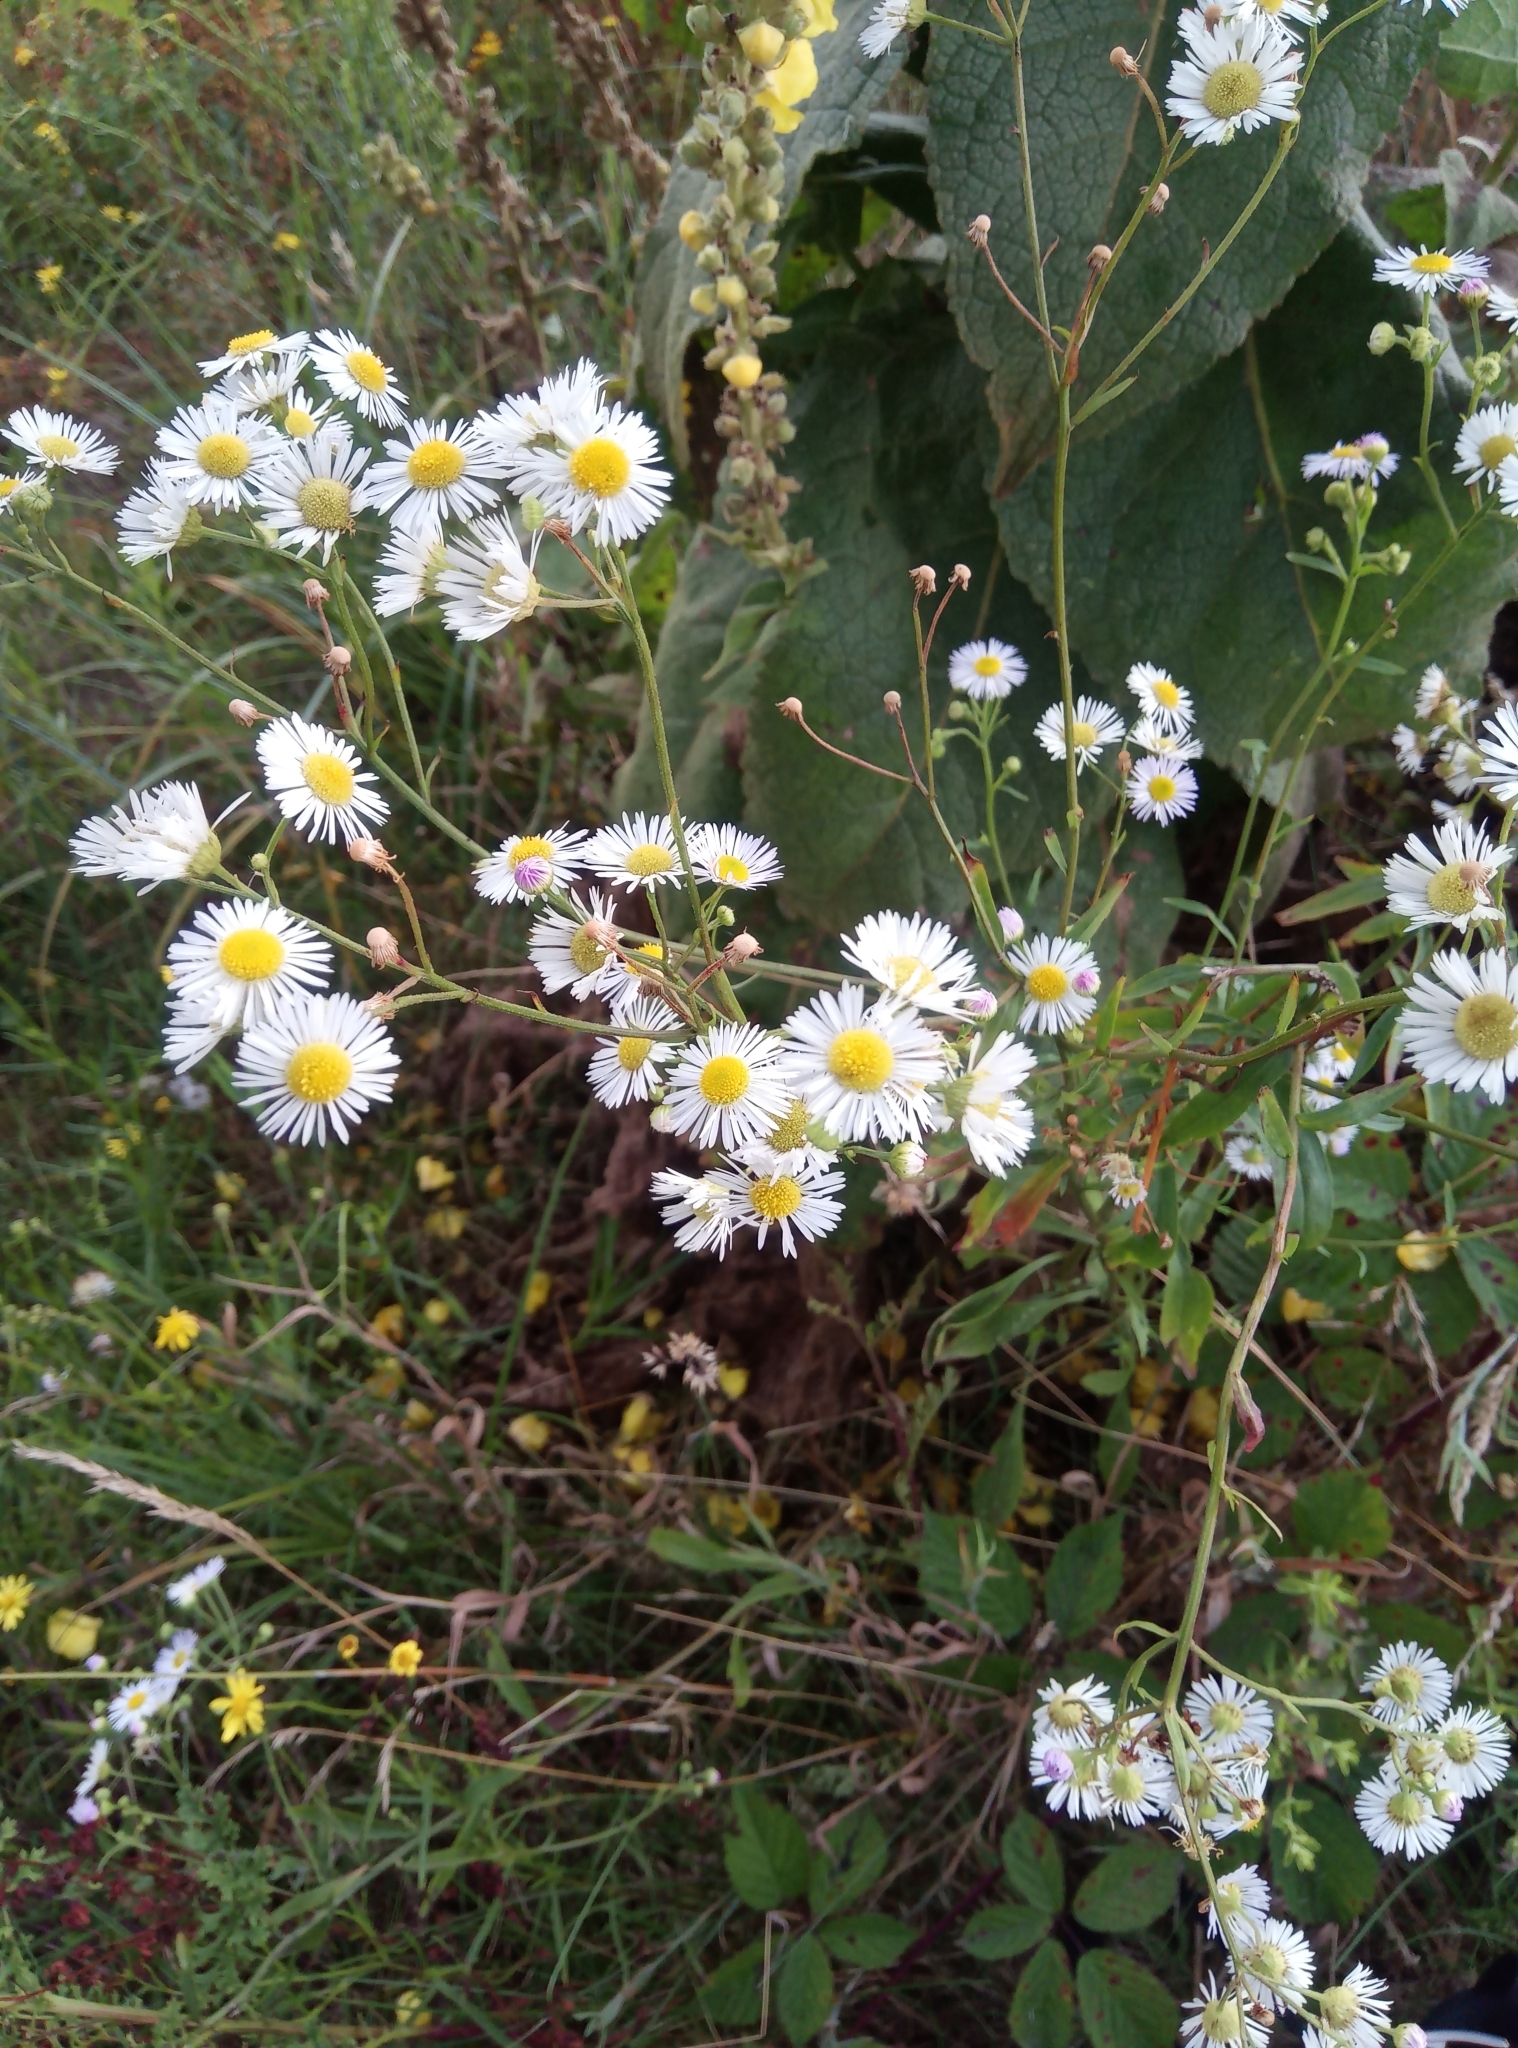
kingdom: Plantae
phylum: Tracheophyta
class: Magnoliopsida
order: Asterales
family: Asteraceae
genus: Erigeron
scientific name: Erigeron annuus
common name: Tall fleabane
